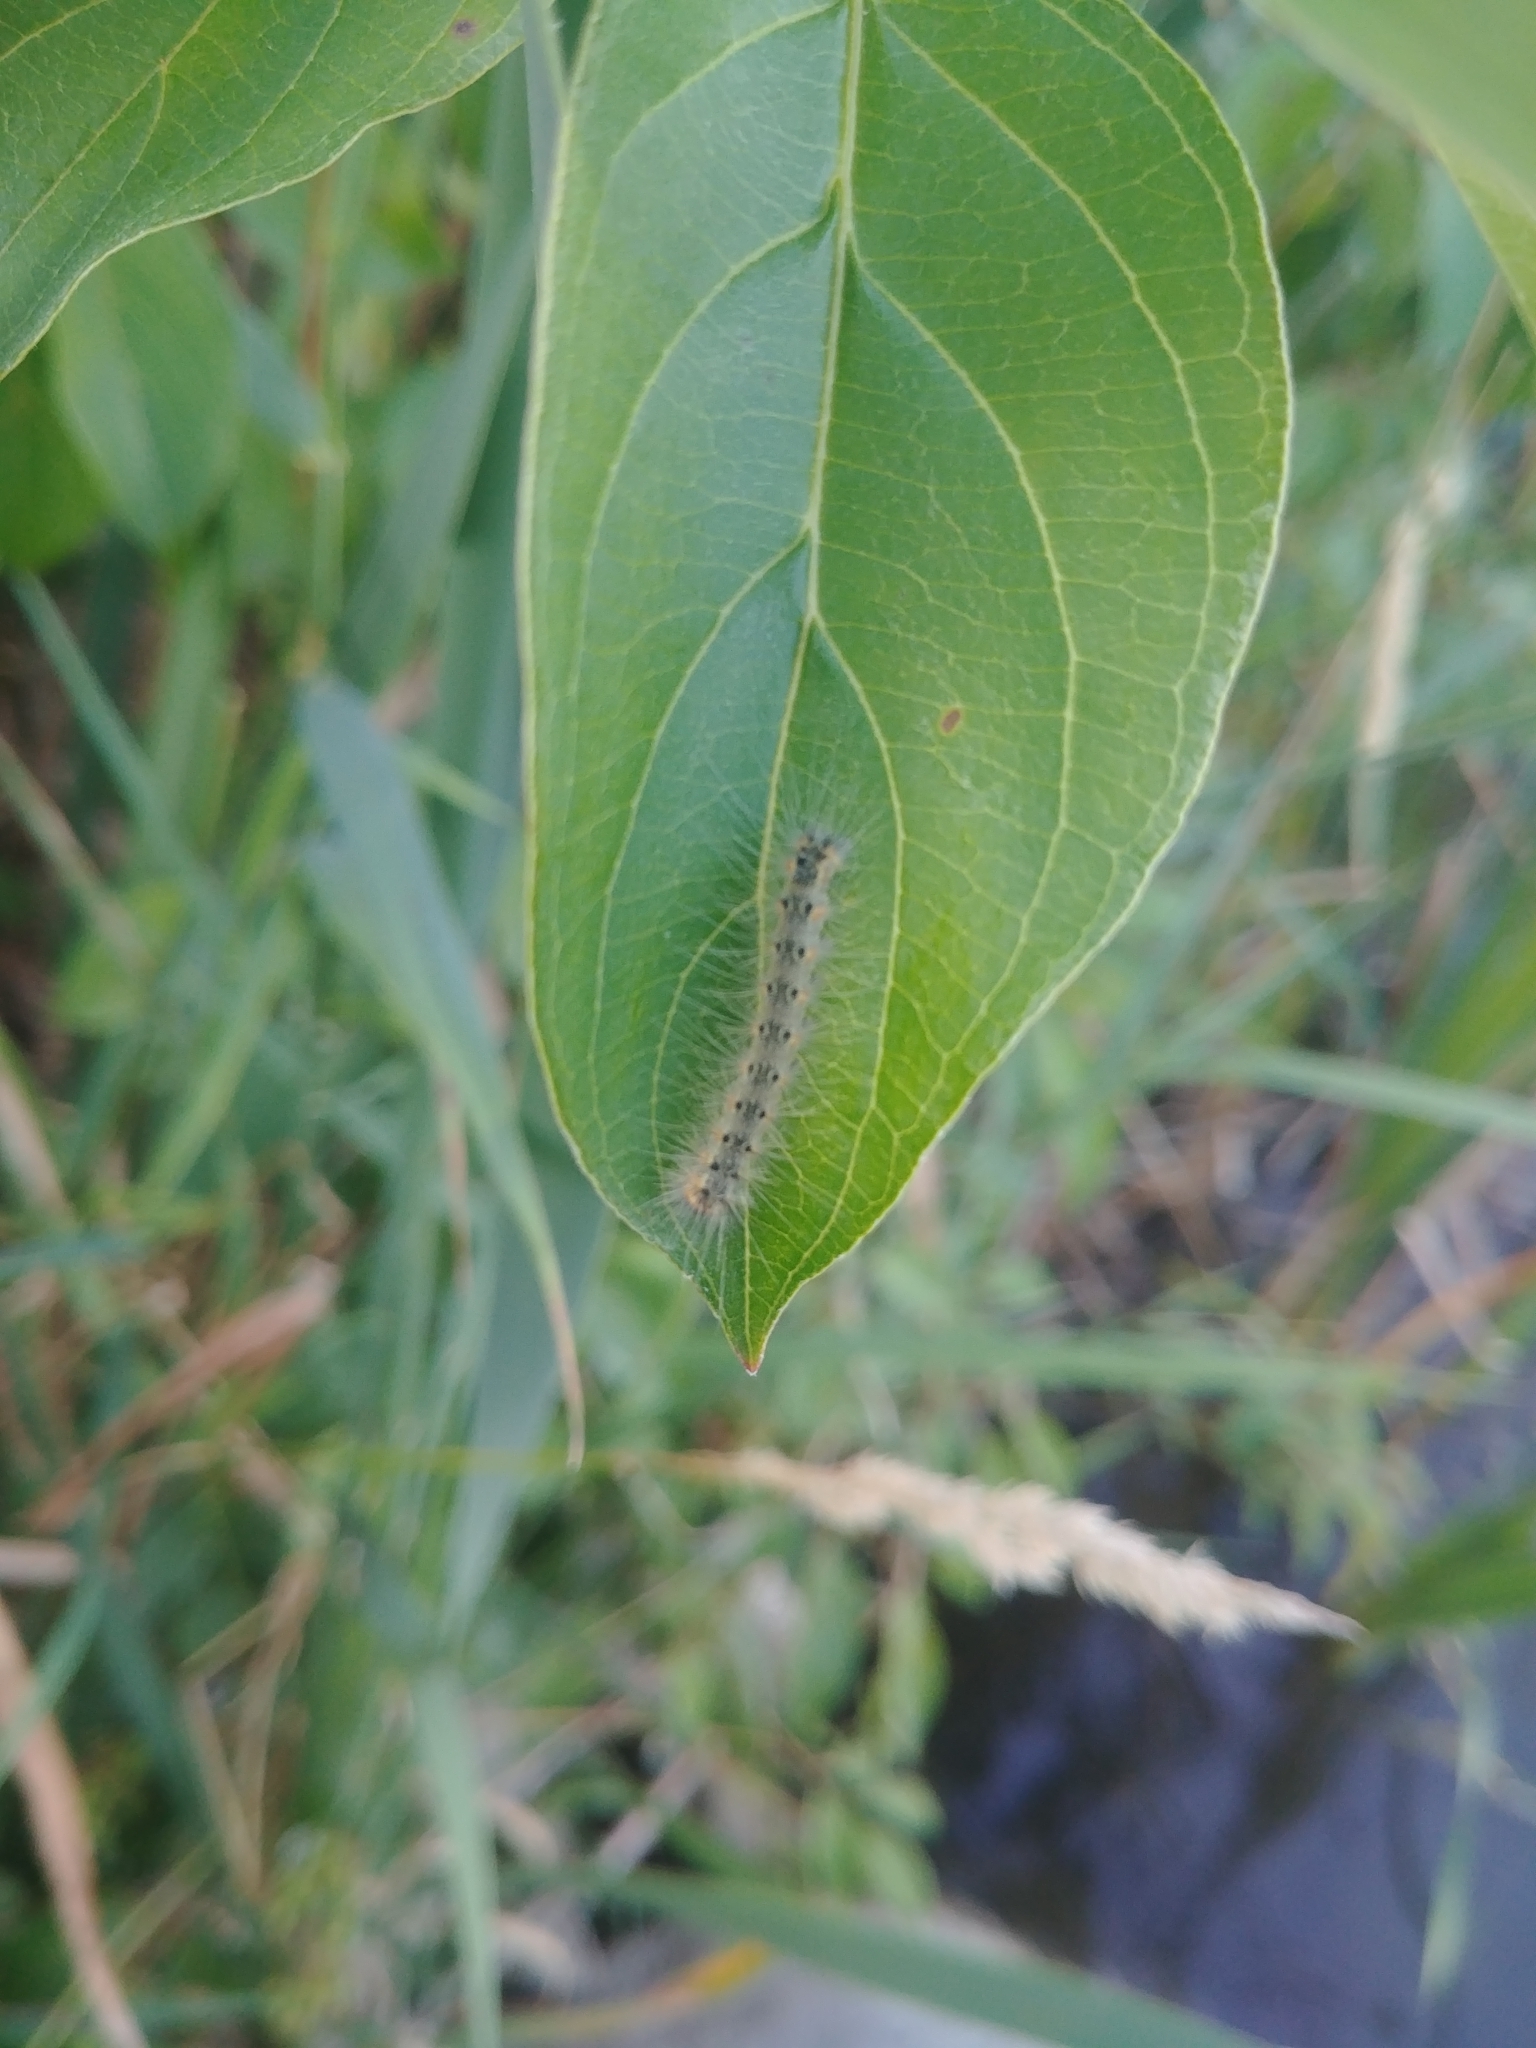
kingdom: Animalia
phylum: Arthropoda
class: Insecta
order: Lepidoptera
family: Erebidae
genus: Hyphantria
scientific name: Hyphantria cunea
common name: American white moth
